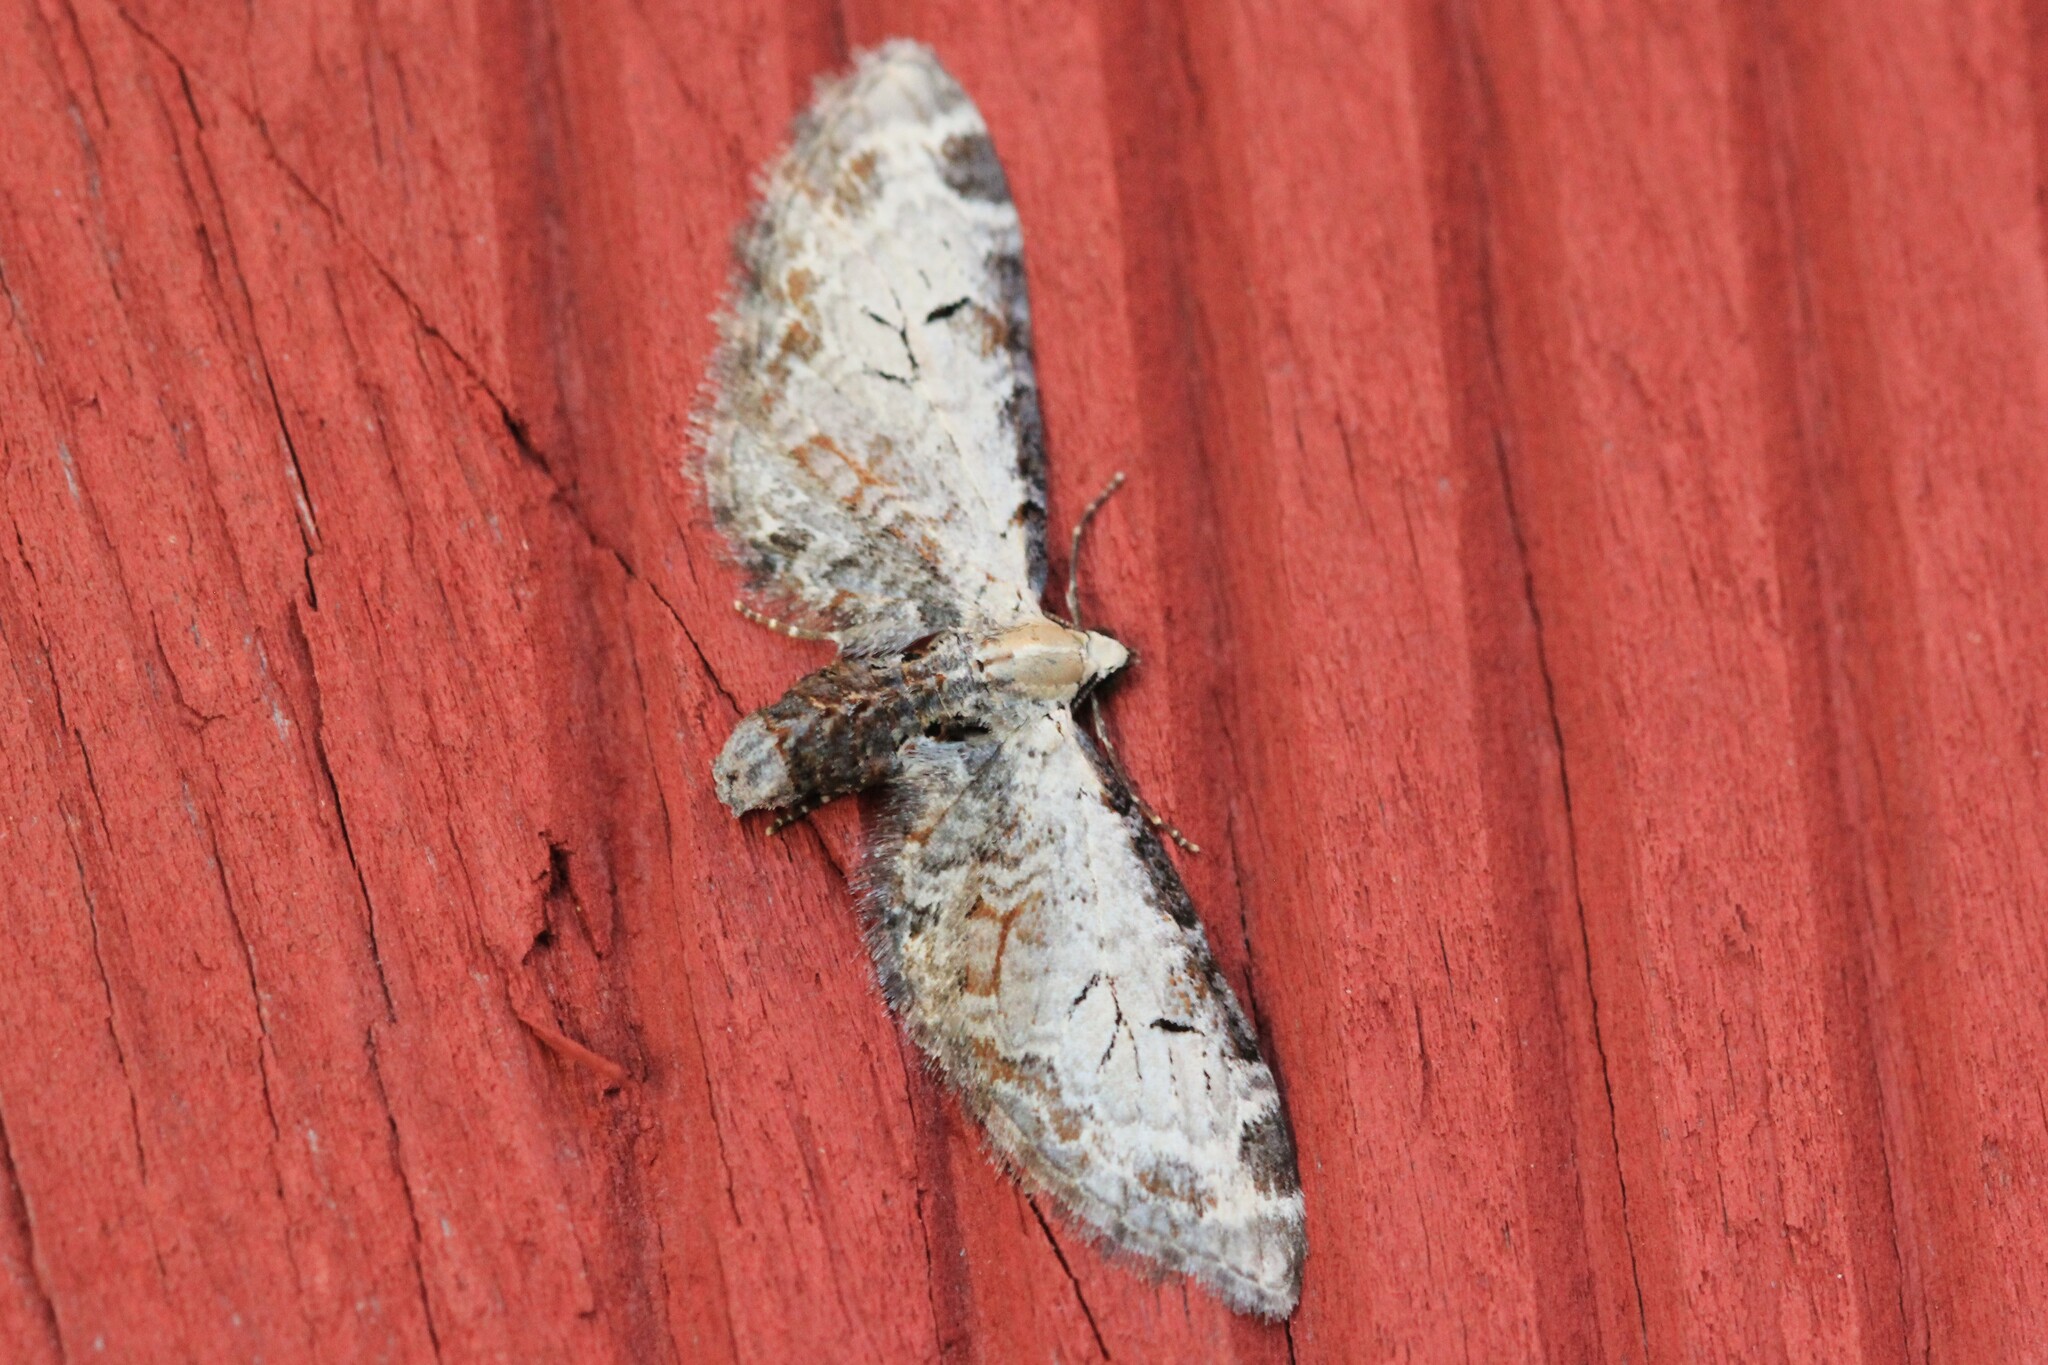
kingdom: Animalia
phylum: Arthropoda
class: Insecta
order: Lepidoptera
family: Geometridae
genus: Eupithecia
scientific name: Eupithecia ravocostaliata
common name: Great varigated pug
